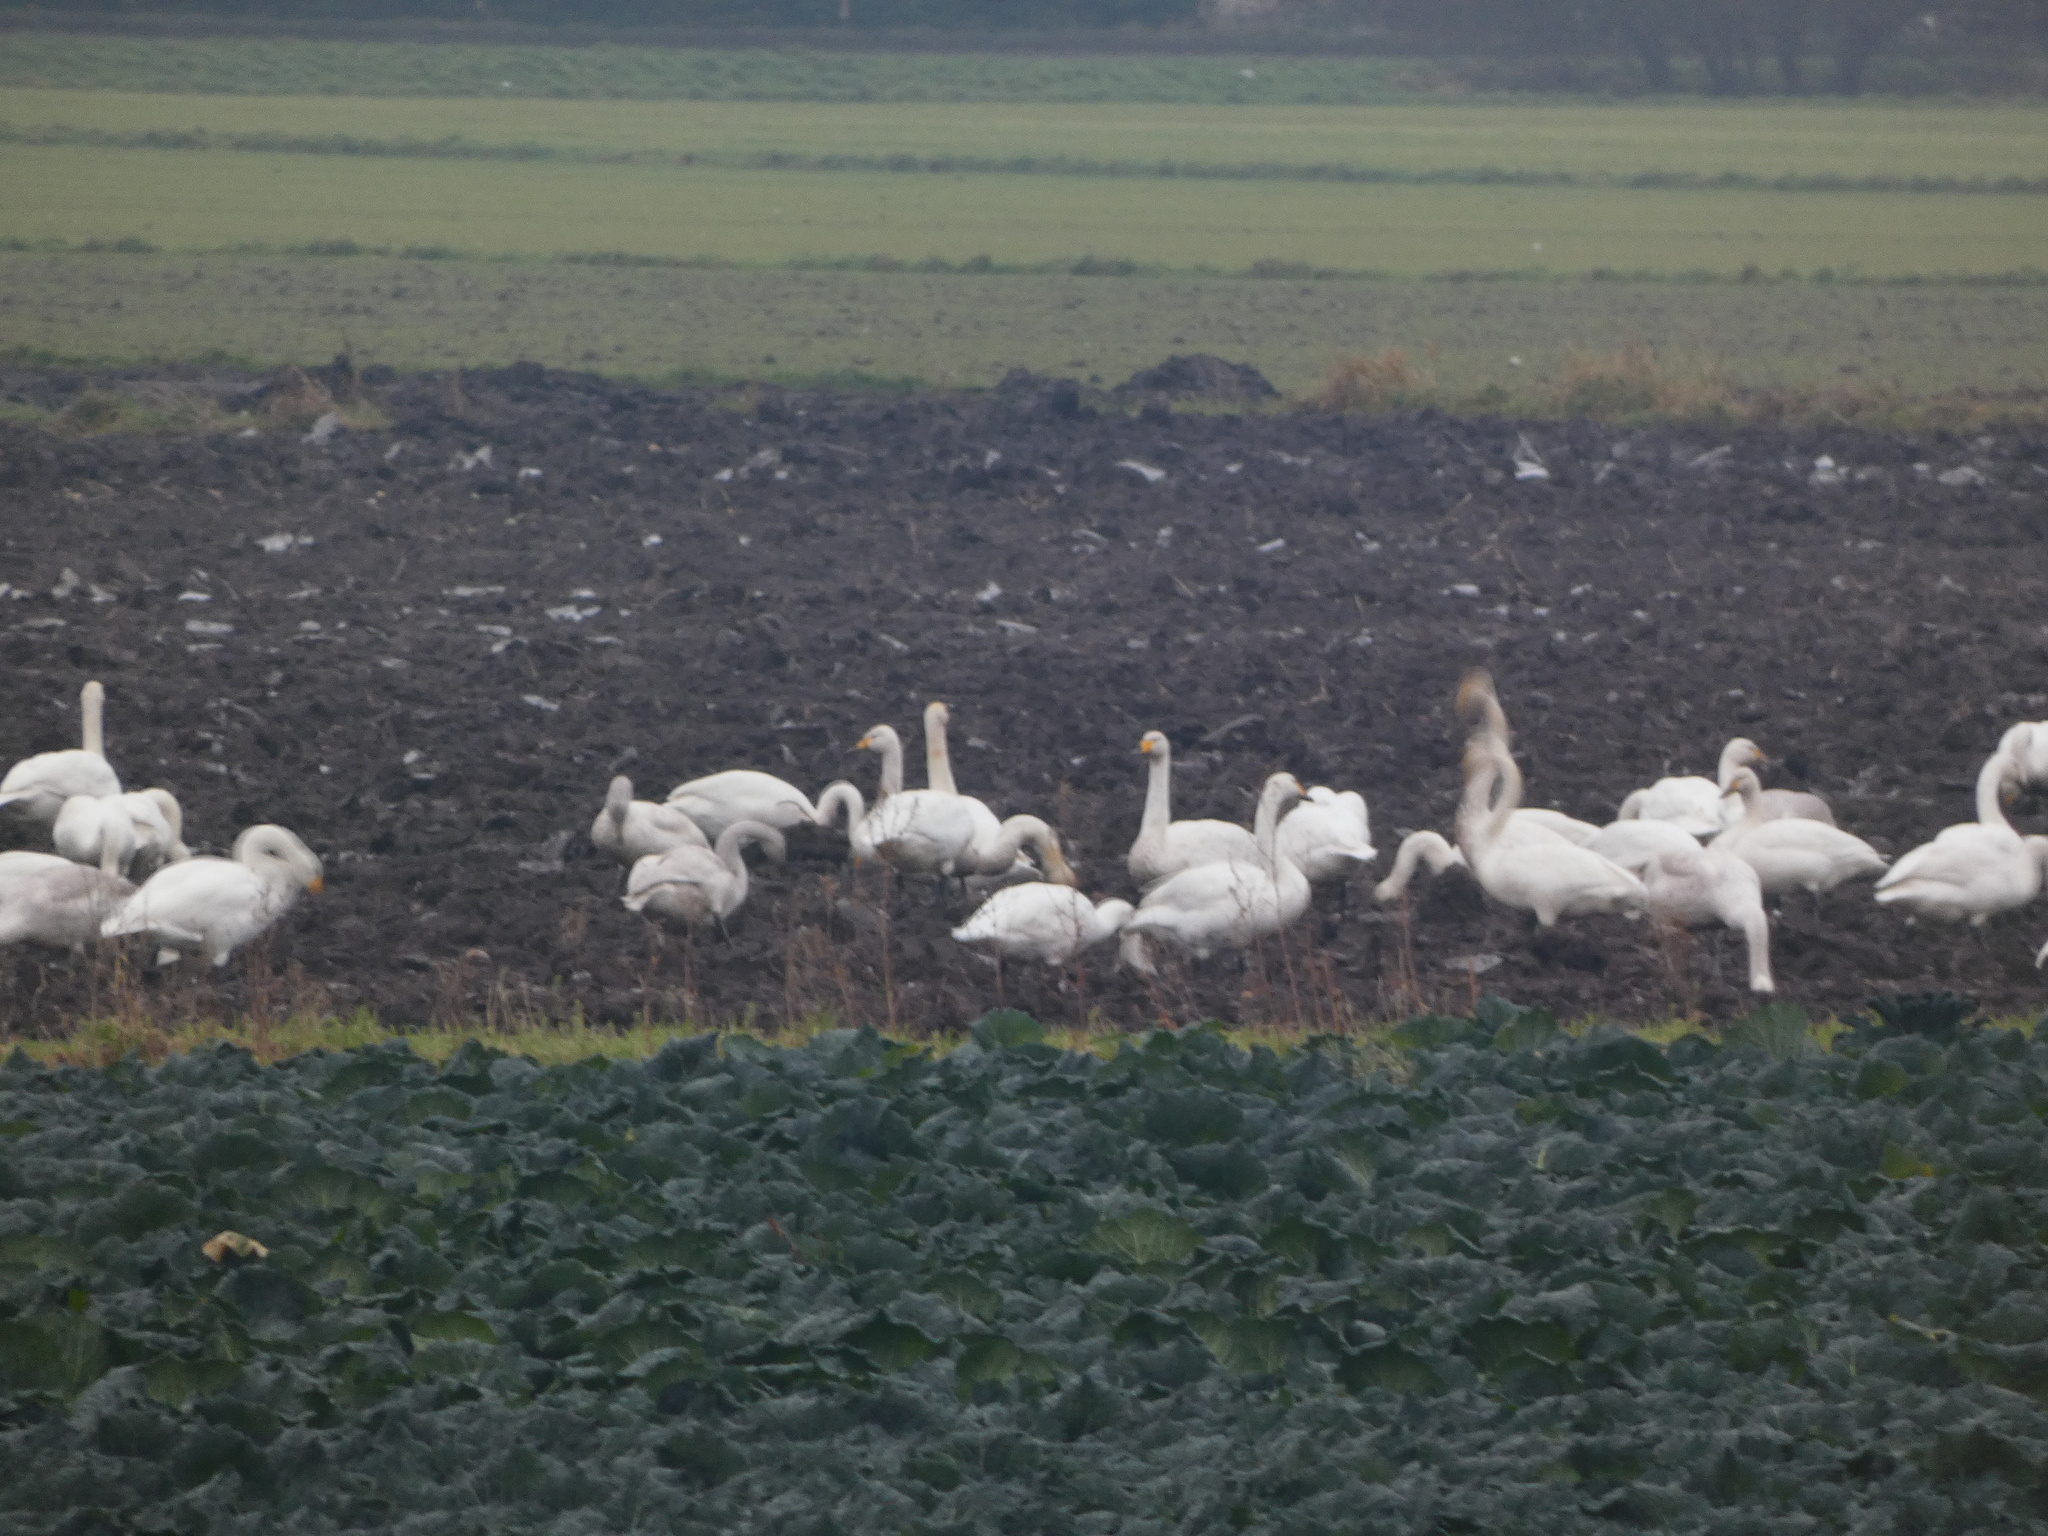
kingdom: Animalia
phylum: Chordata
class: Aves
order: Anseriformes
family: Anatidae
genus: Cygnus
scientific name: Cygnus cygnus
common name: Whooper swan
